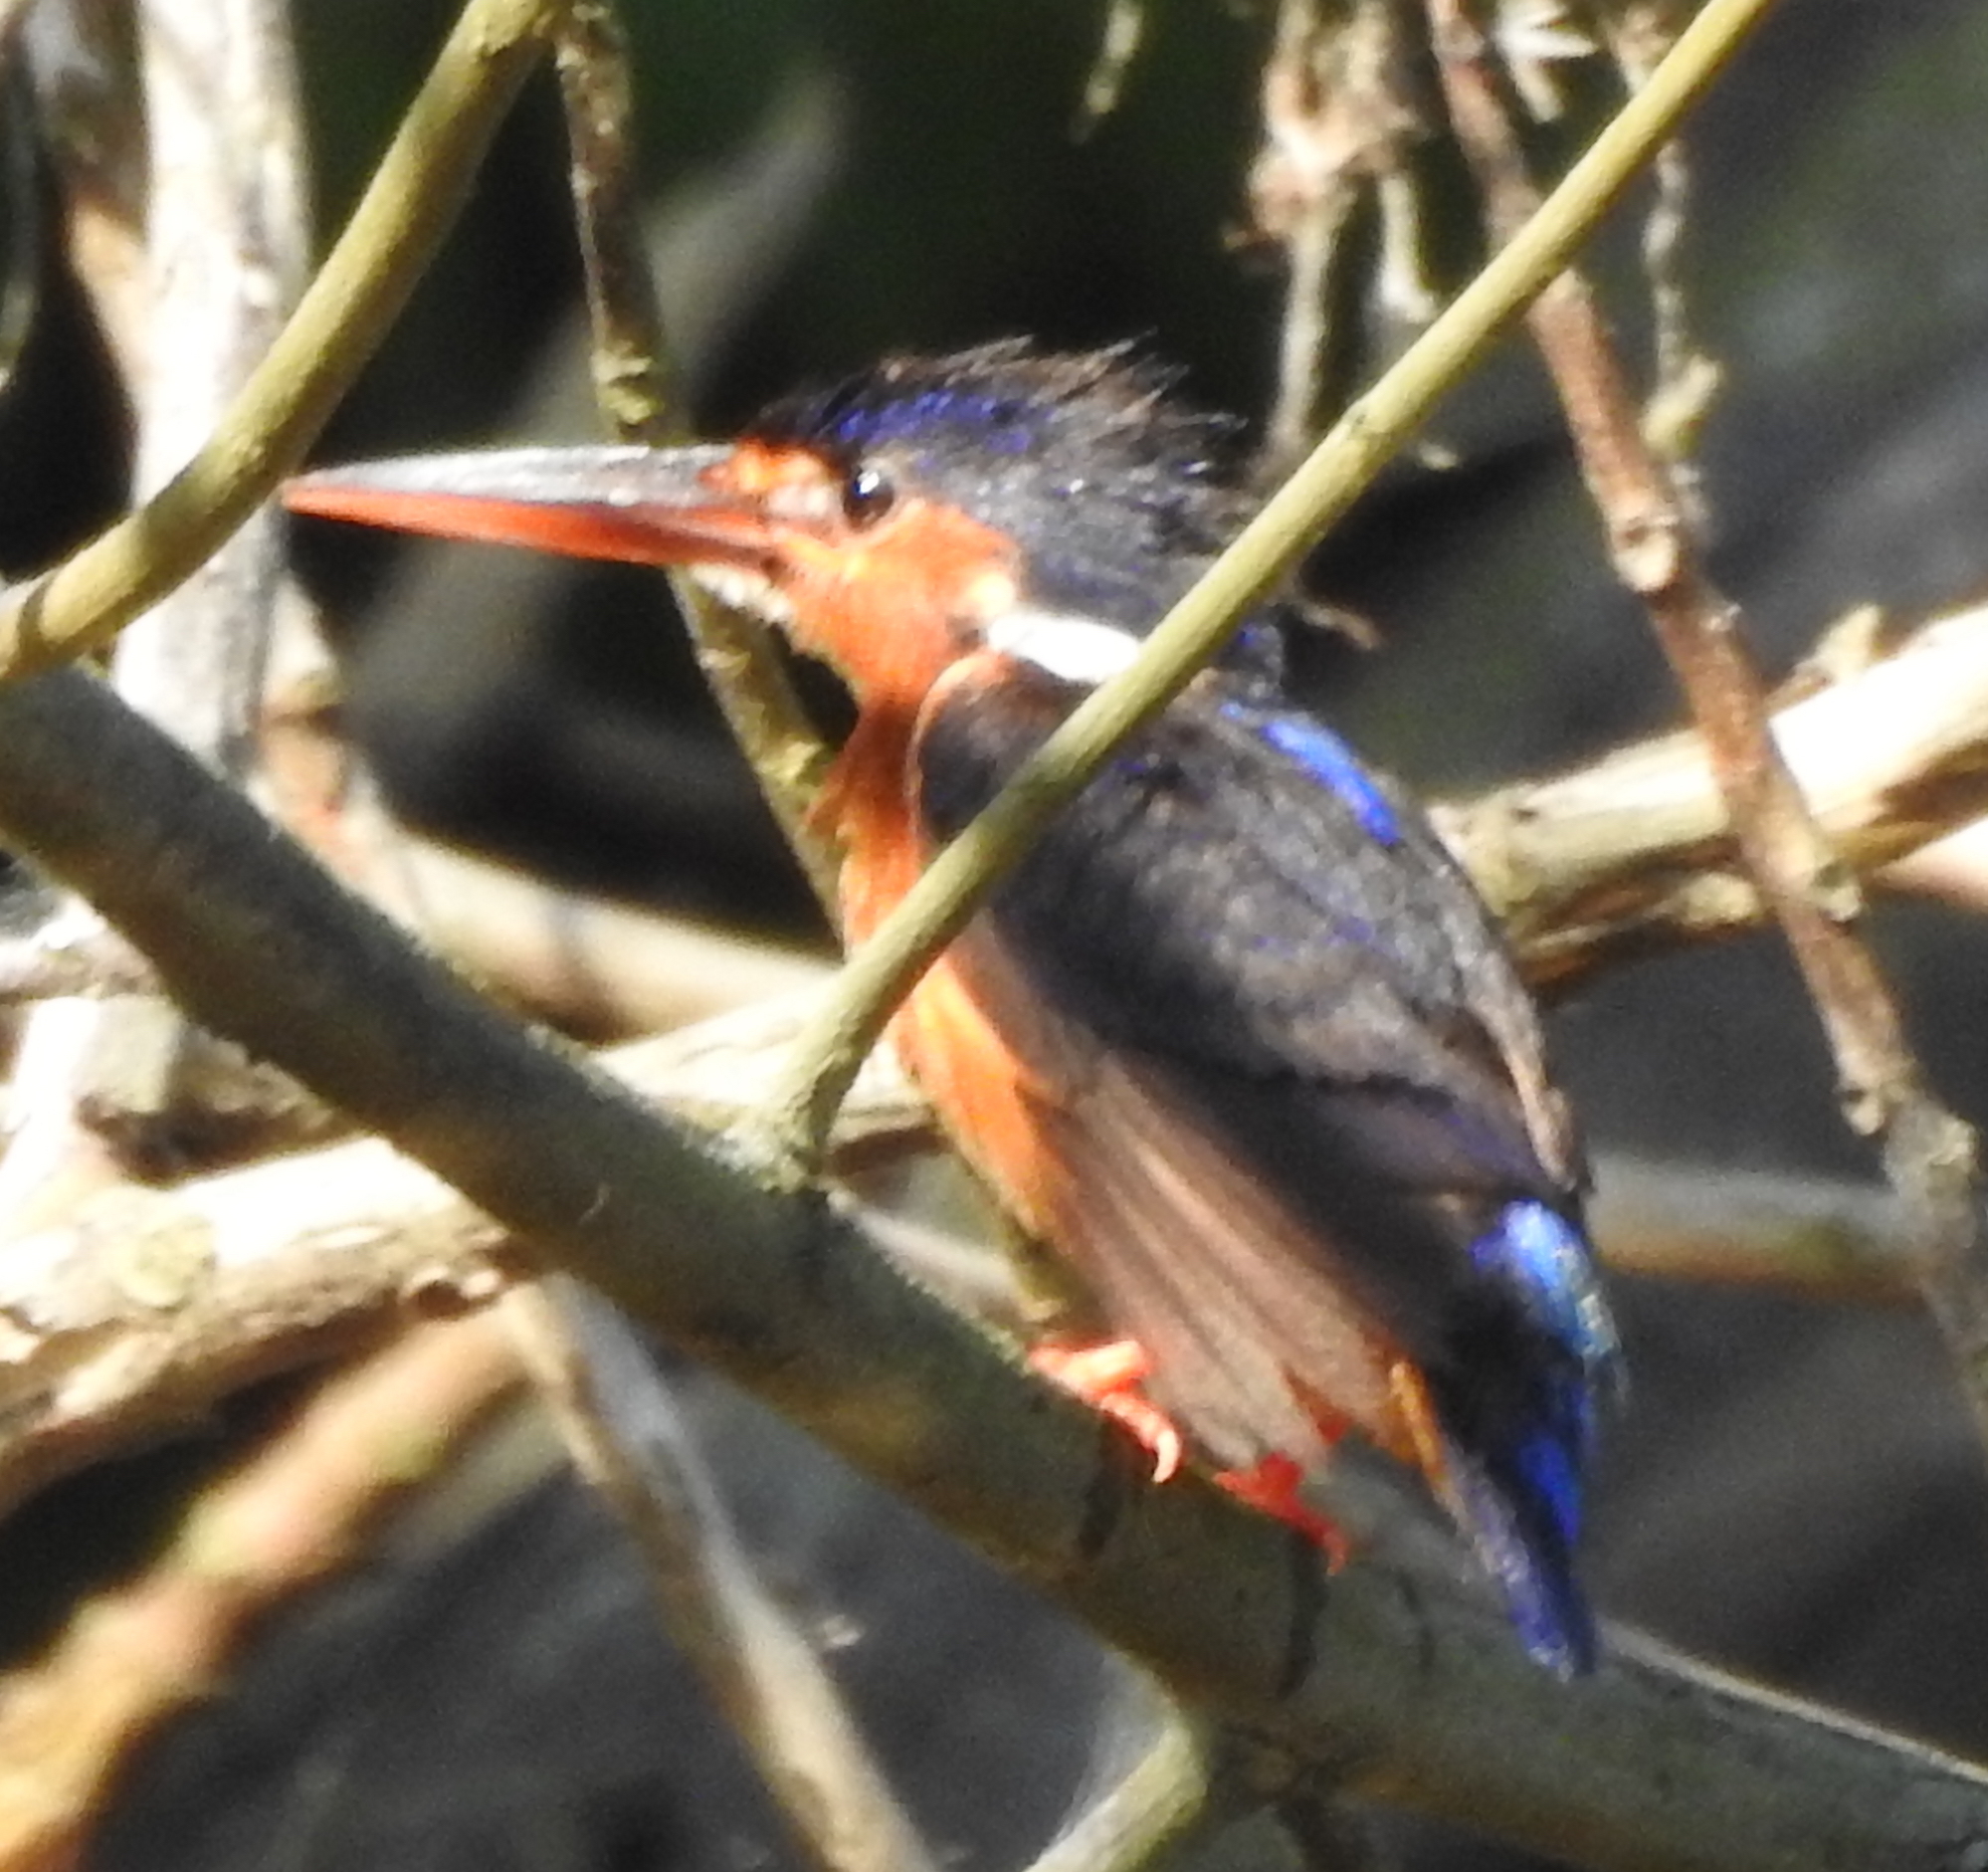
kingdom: Animalia
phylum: Chordata
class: Aves
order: Coraciiformes
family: Alcedinidae
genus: Alcedo
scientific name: Alcedo meninting
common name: Blue-eared kingfisher
